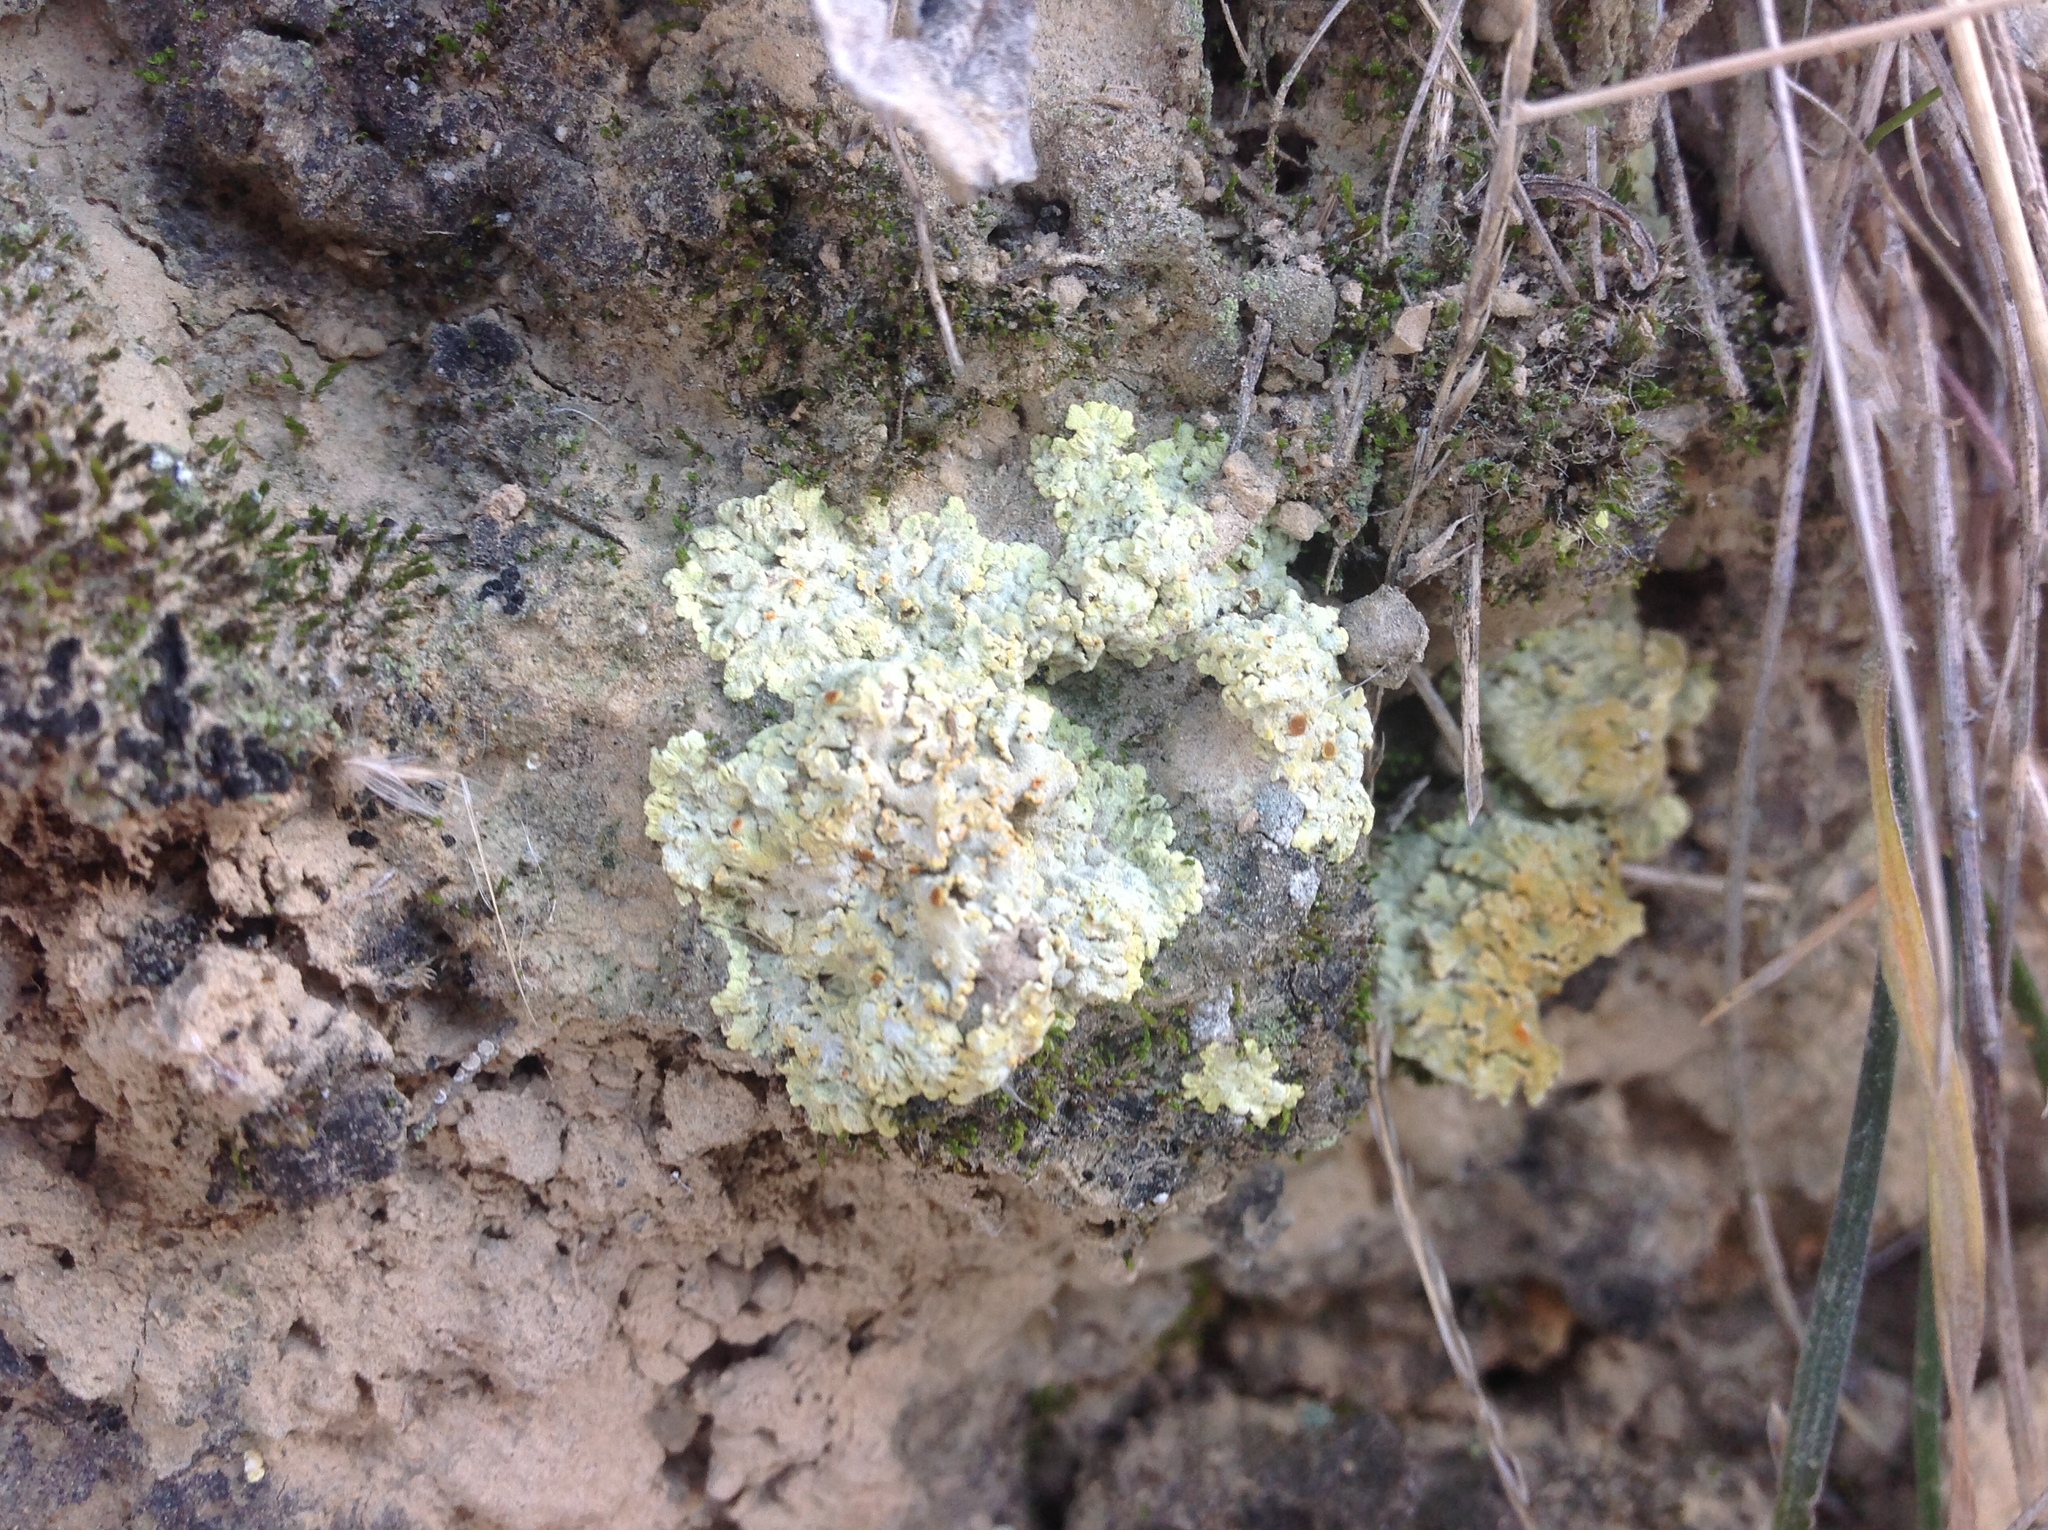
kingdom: Fungi
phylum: Ascomycota
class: Lecanoromycetes
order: Teloschistales
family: Teloschistaceae
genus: Gyalolechia
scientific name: Gyalolechia fulgens
